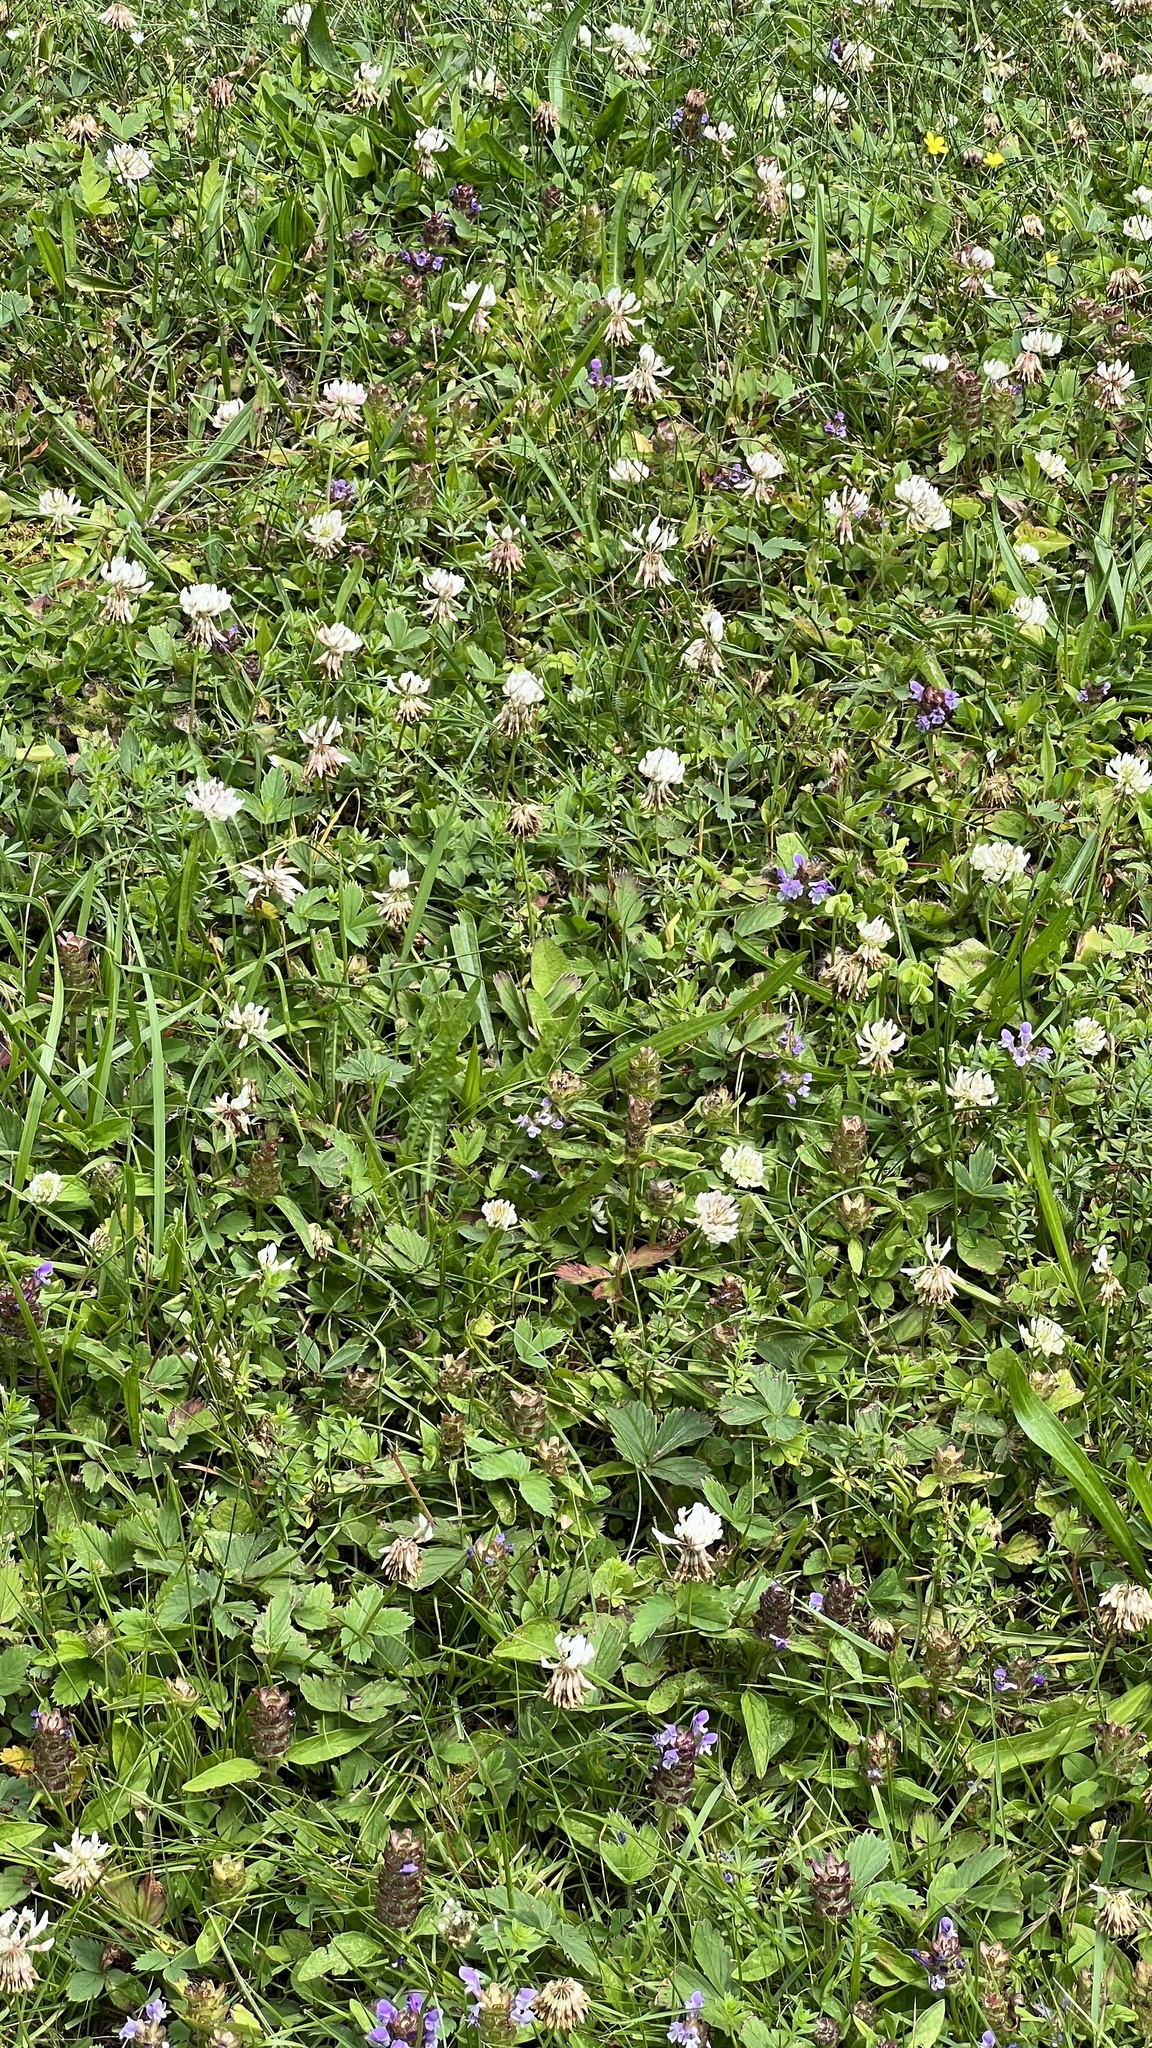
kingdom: Plantae
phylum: Tracheophyta
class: Magnoliopsida
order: Fabales
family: Fabaceae
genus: Trifolium
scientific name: Trifolium repens
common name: White clover
